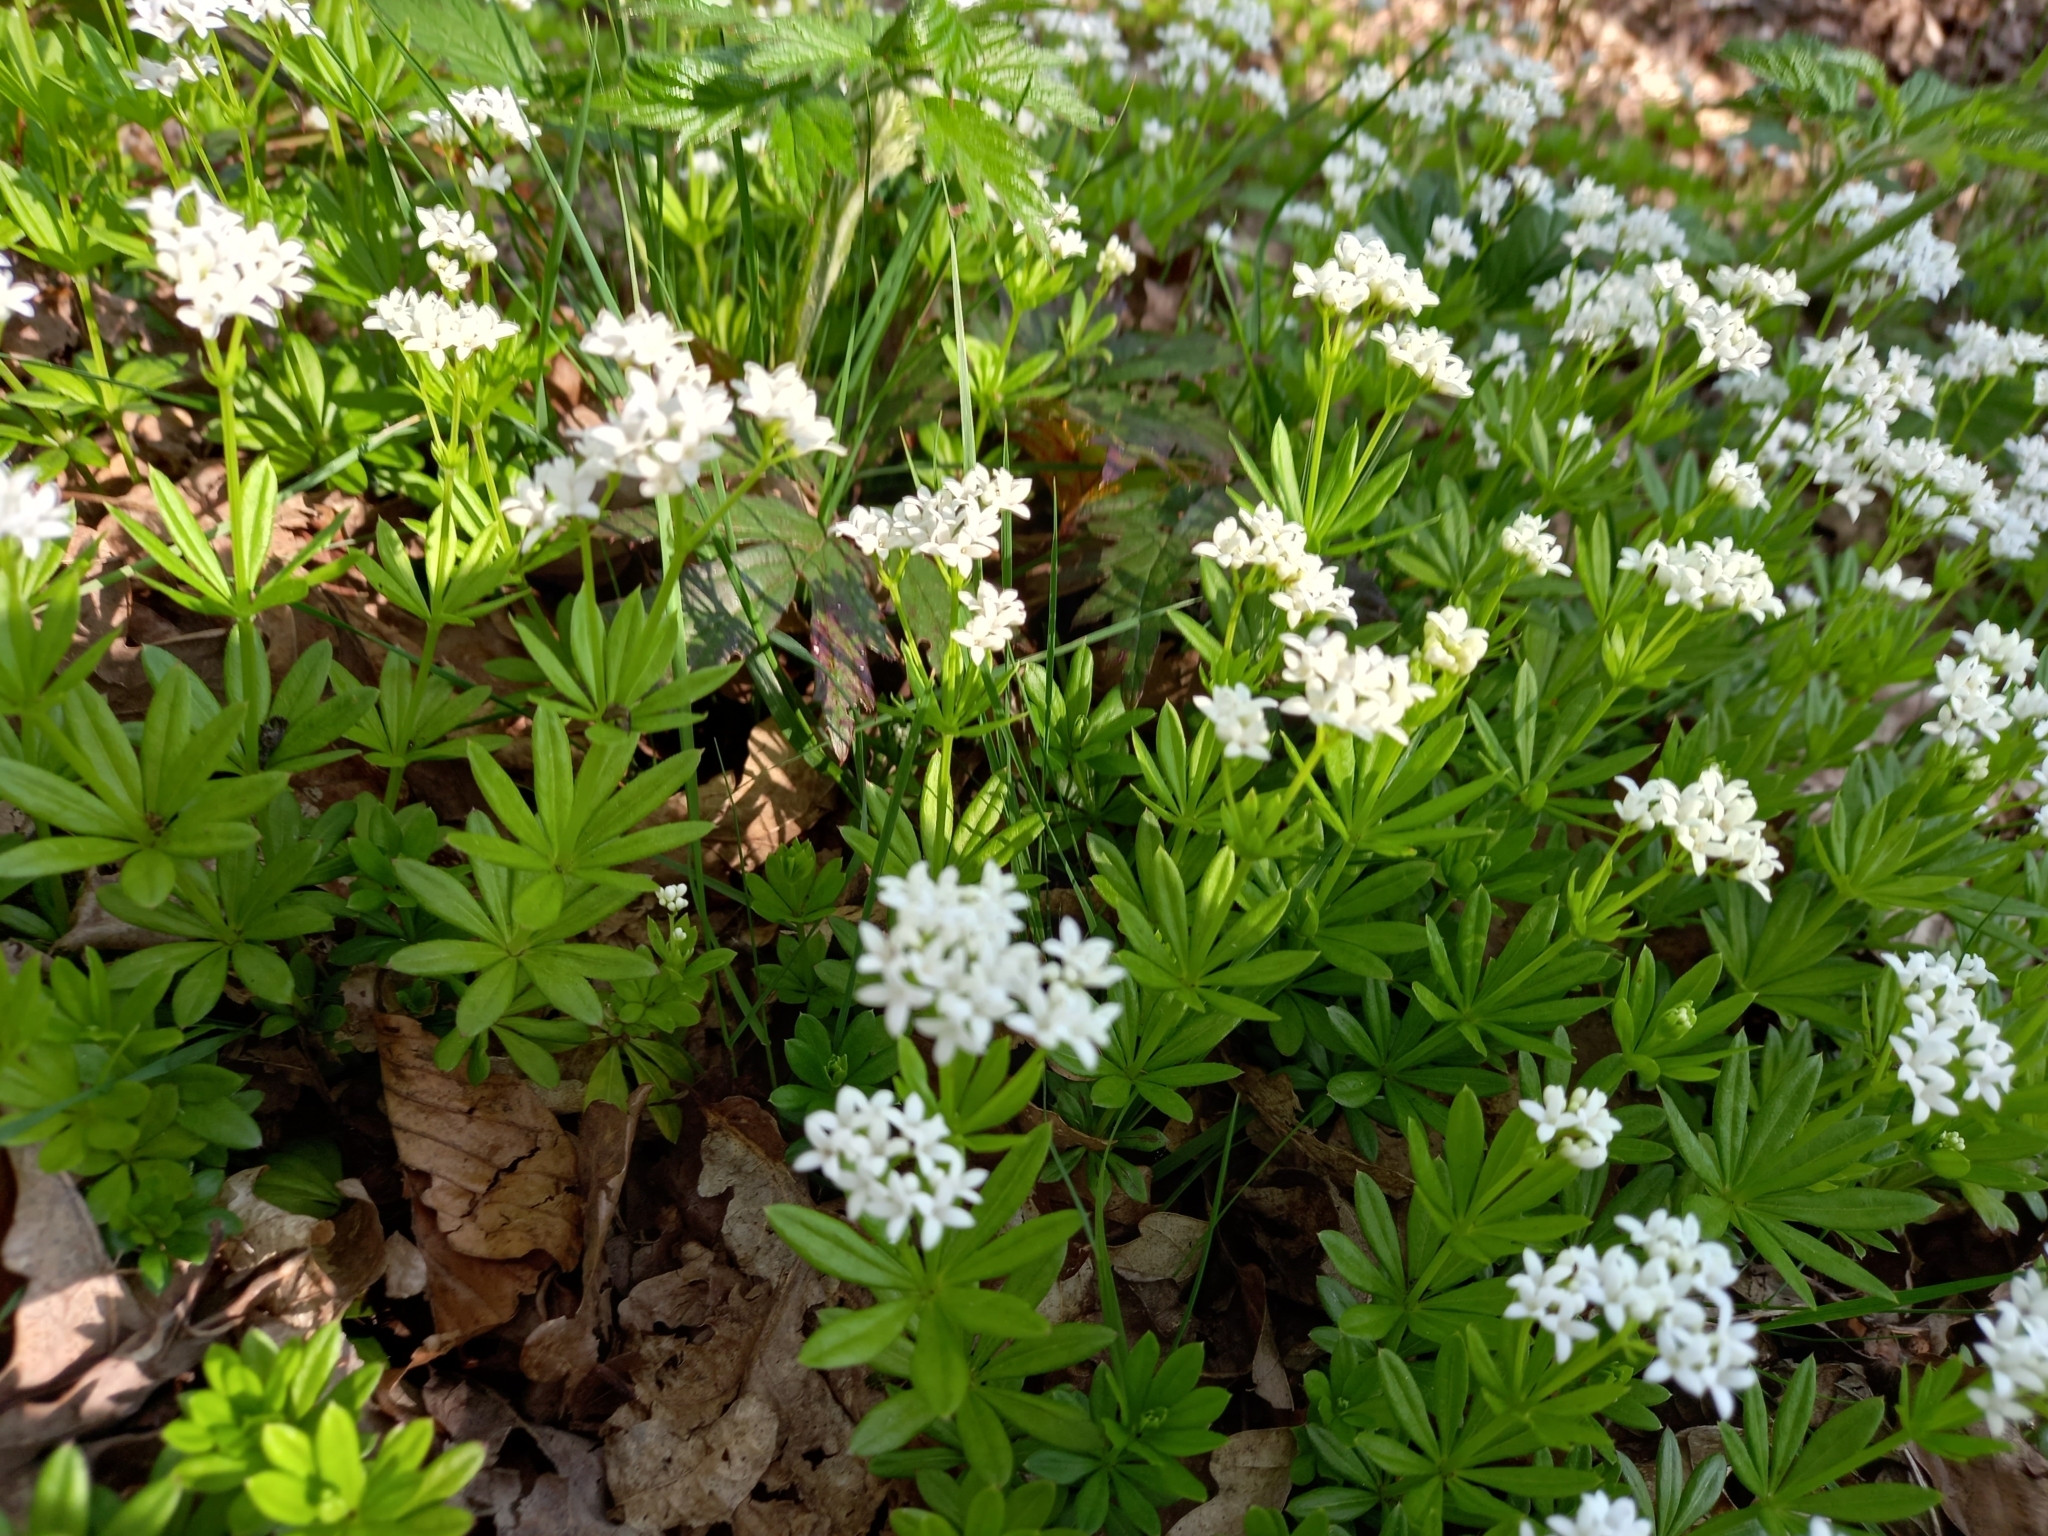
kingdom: Plantae
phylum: Tracheophyta
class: Magnoliopsida
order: Gentianales
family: Rubiaceae
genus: Galium
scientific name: Galium odoratum
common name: Sweet woodruff
